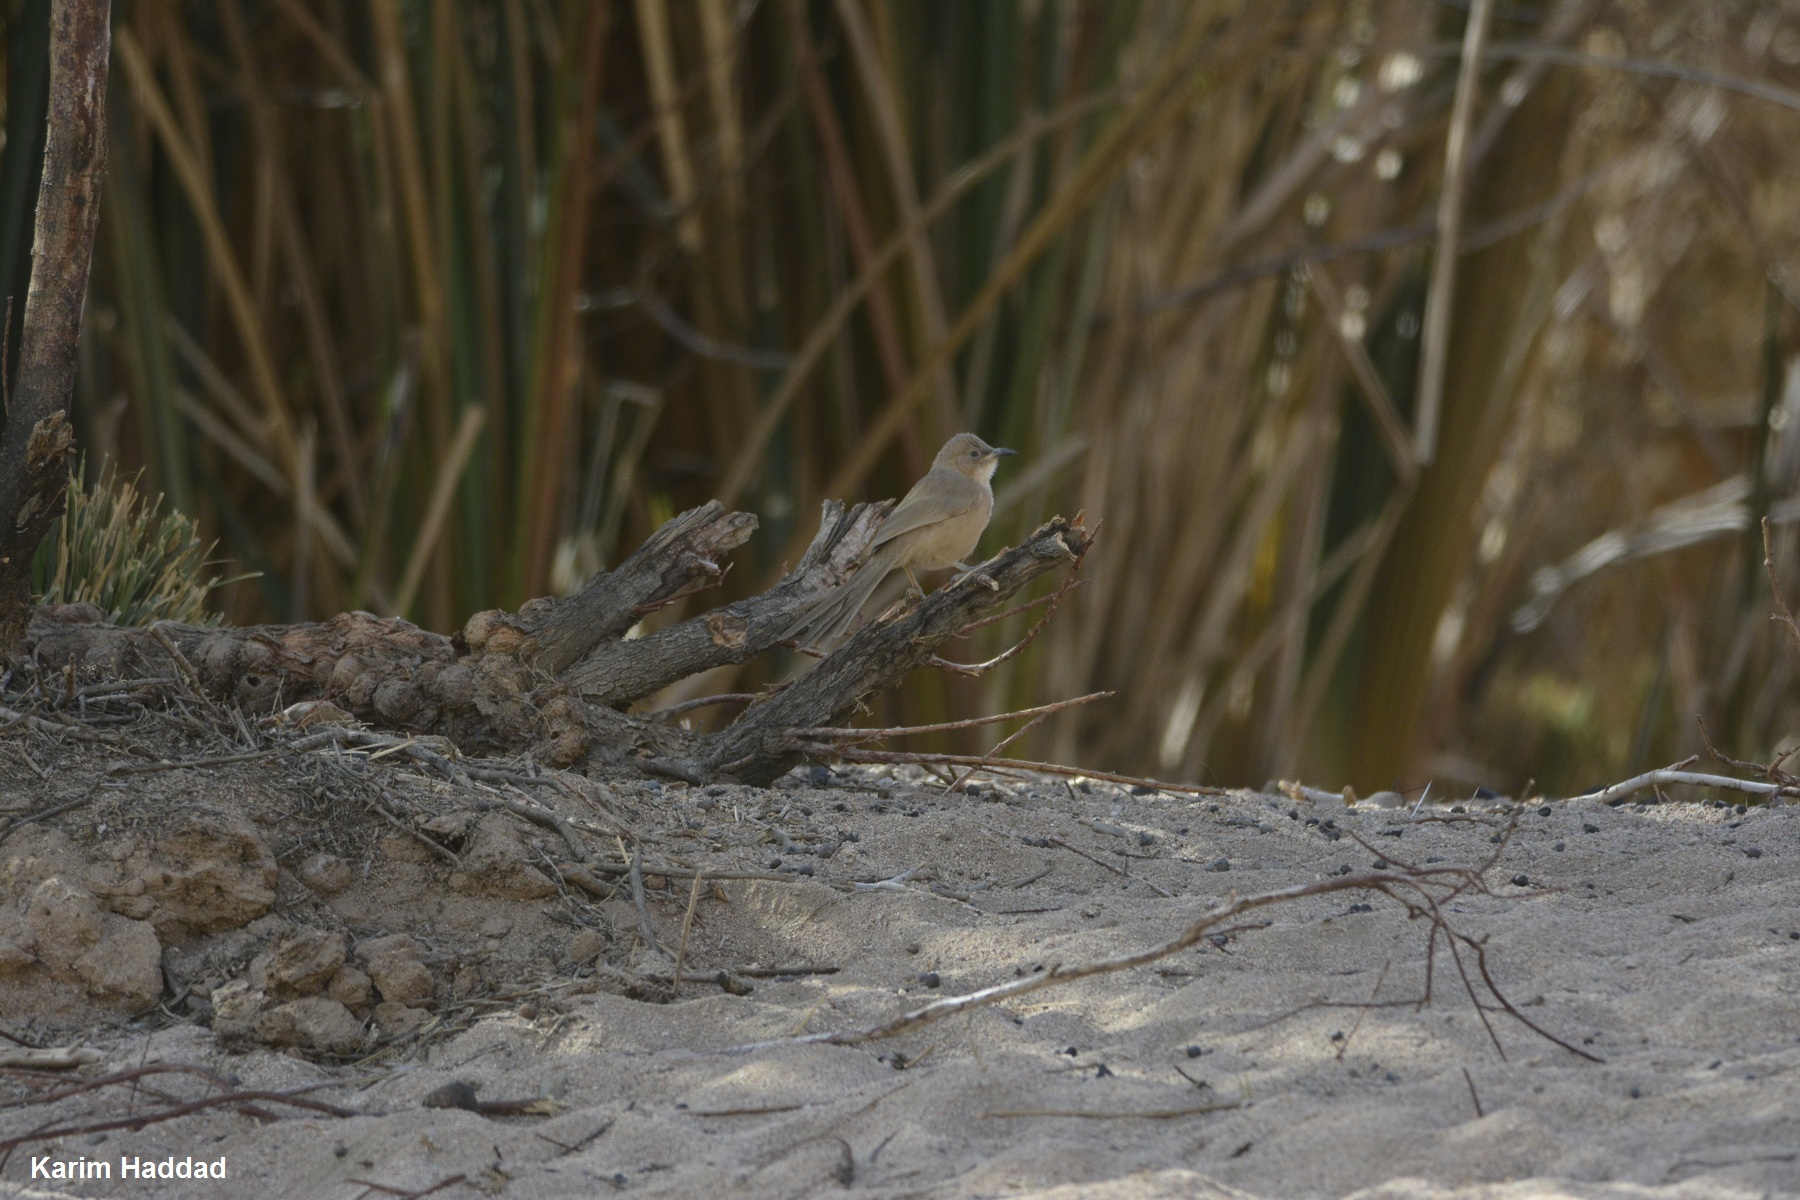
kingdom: Animalia
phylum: Chordata
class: Aves
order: Passeriformes
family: Leiothrichidae
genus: Turdoides
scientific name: Turdoides fulva
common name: Fulvous babbler
